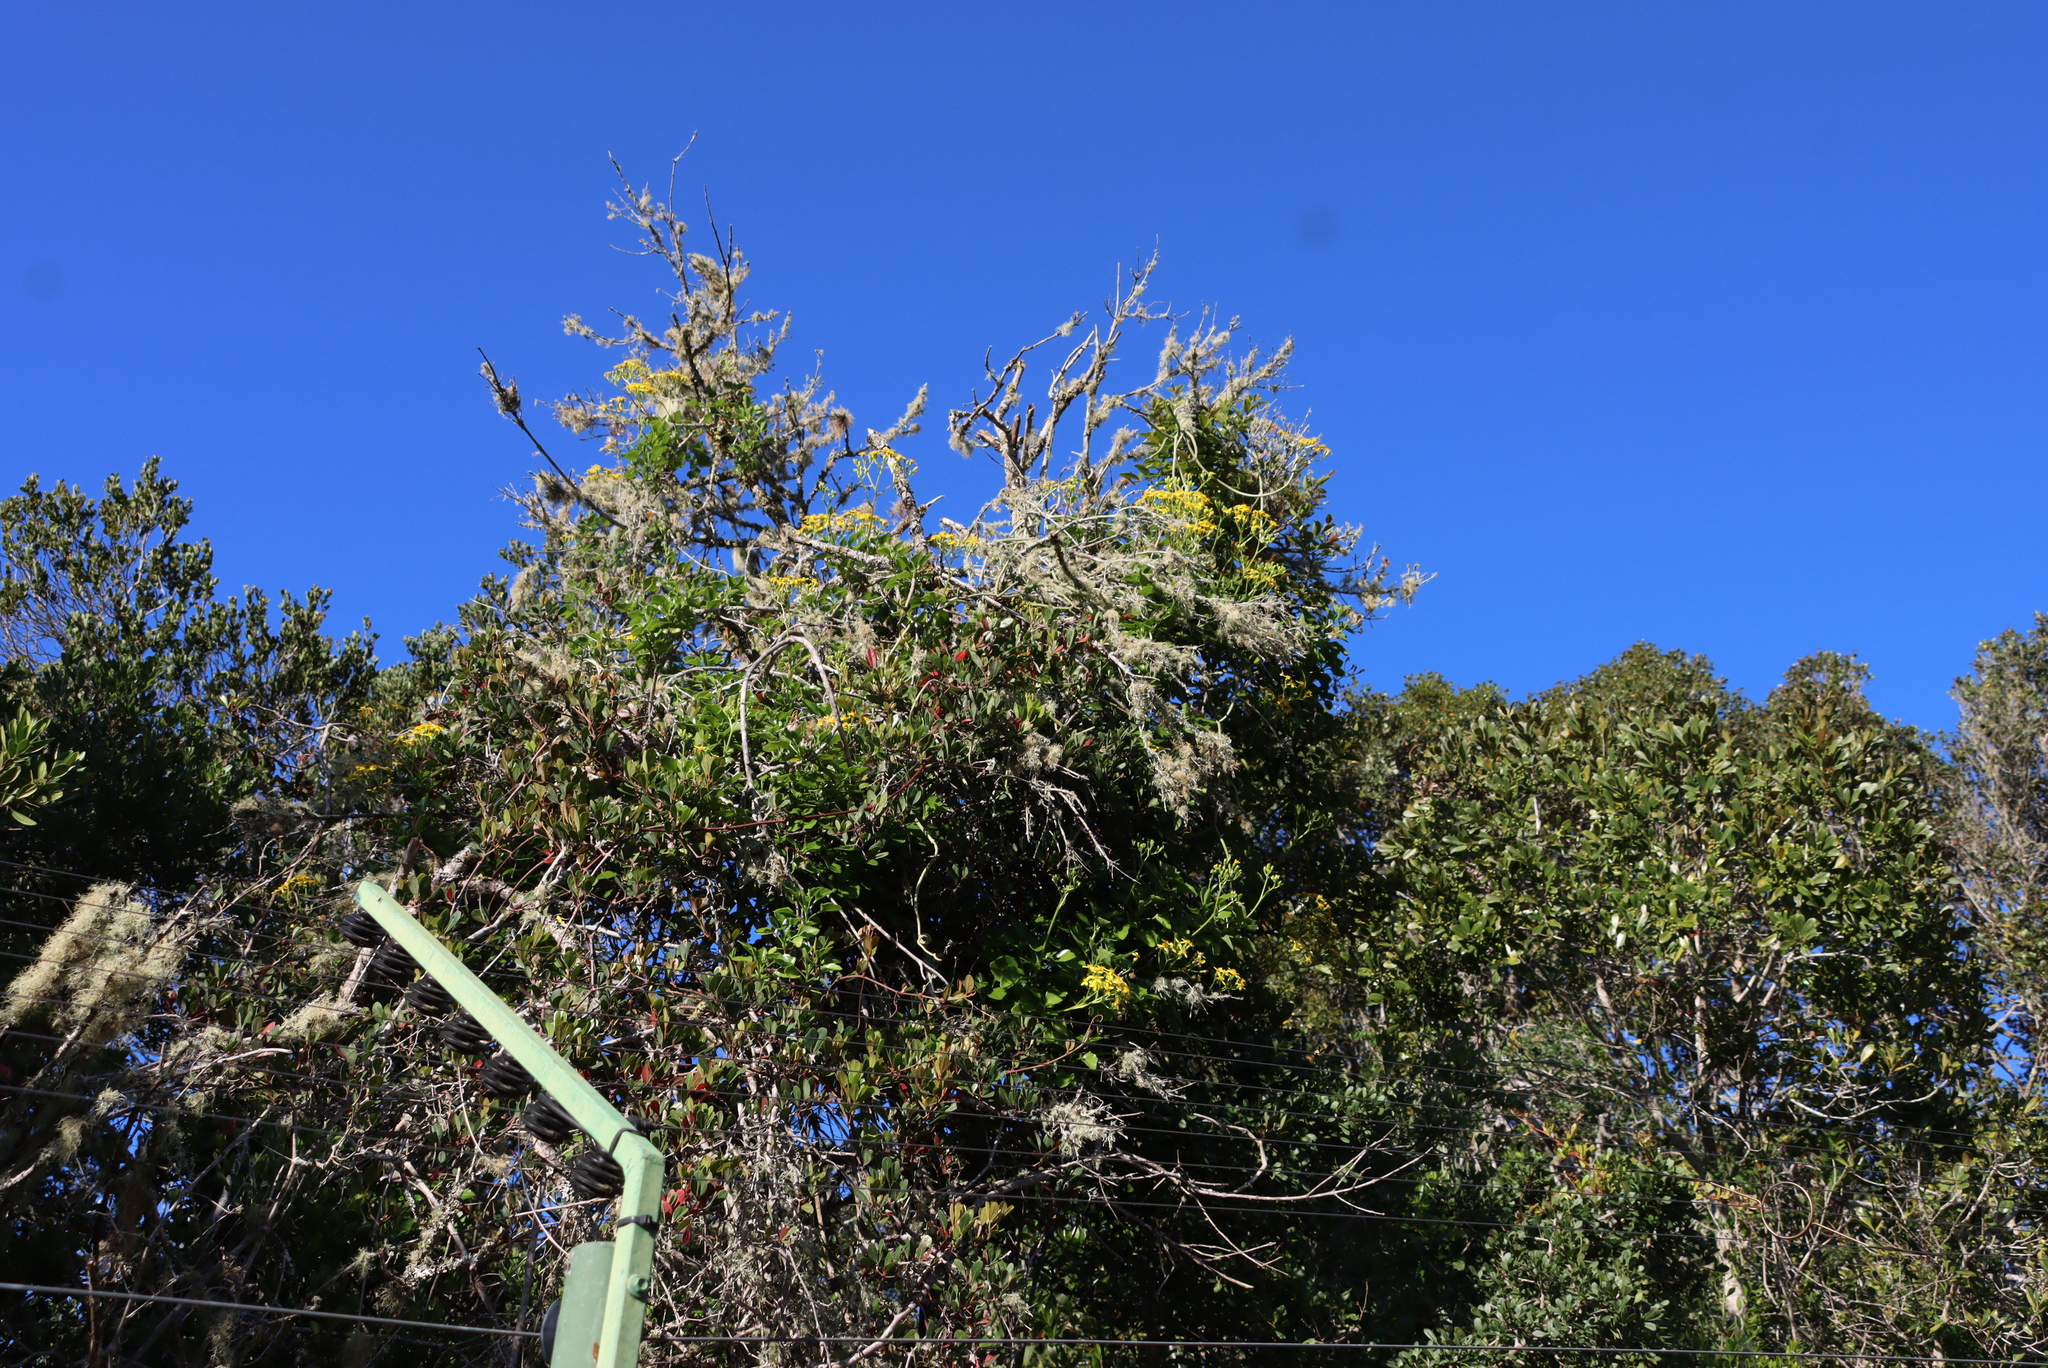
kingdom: Plantae
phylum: Tracheophyta
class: Magnoliopsida
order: Asterales
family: Asteraceae
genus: Senecio
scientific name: Senecio deltoideus
